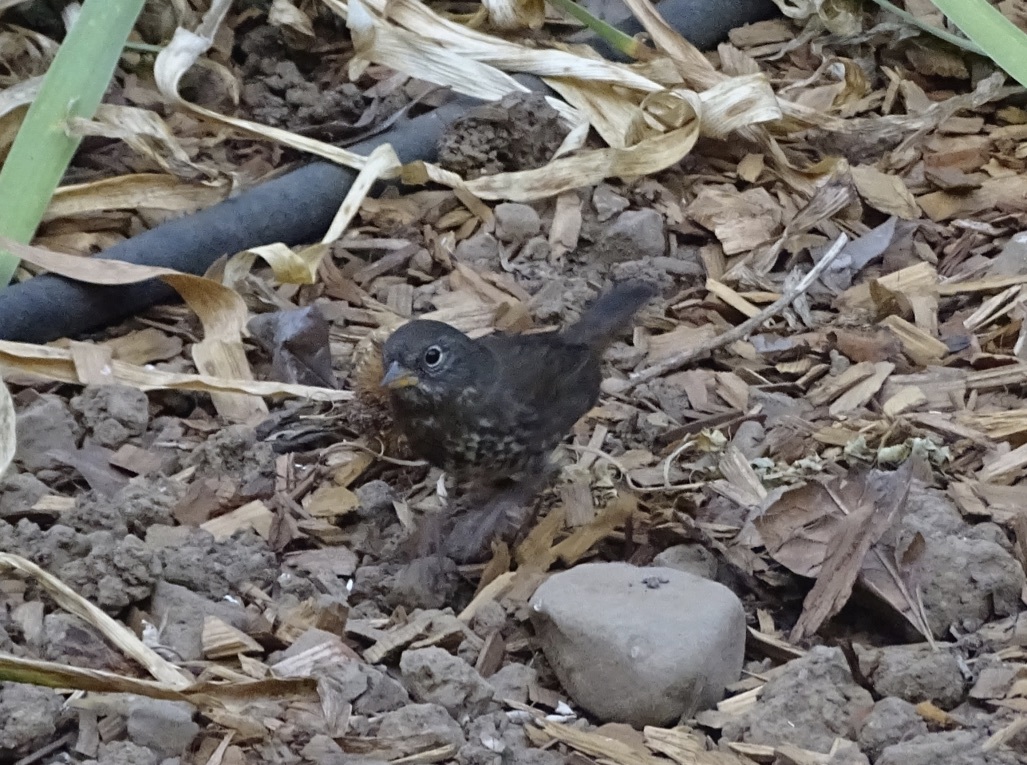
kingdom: Animalia
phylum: Chordata
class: Aves
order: Passeriformes
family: Passerellidae
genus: Passerella
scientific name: Passerella iliaca
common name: Fox sparrow
